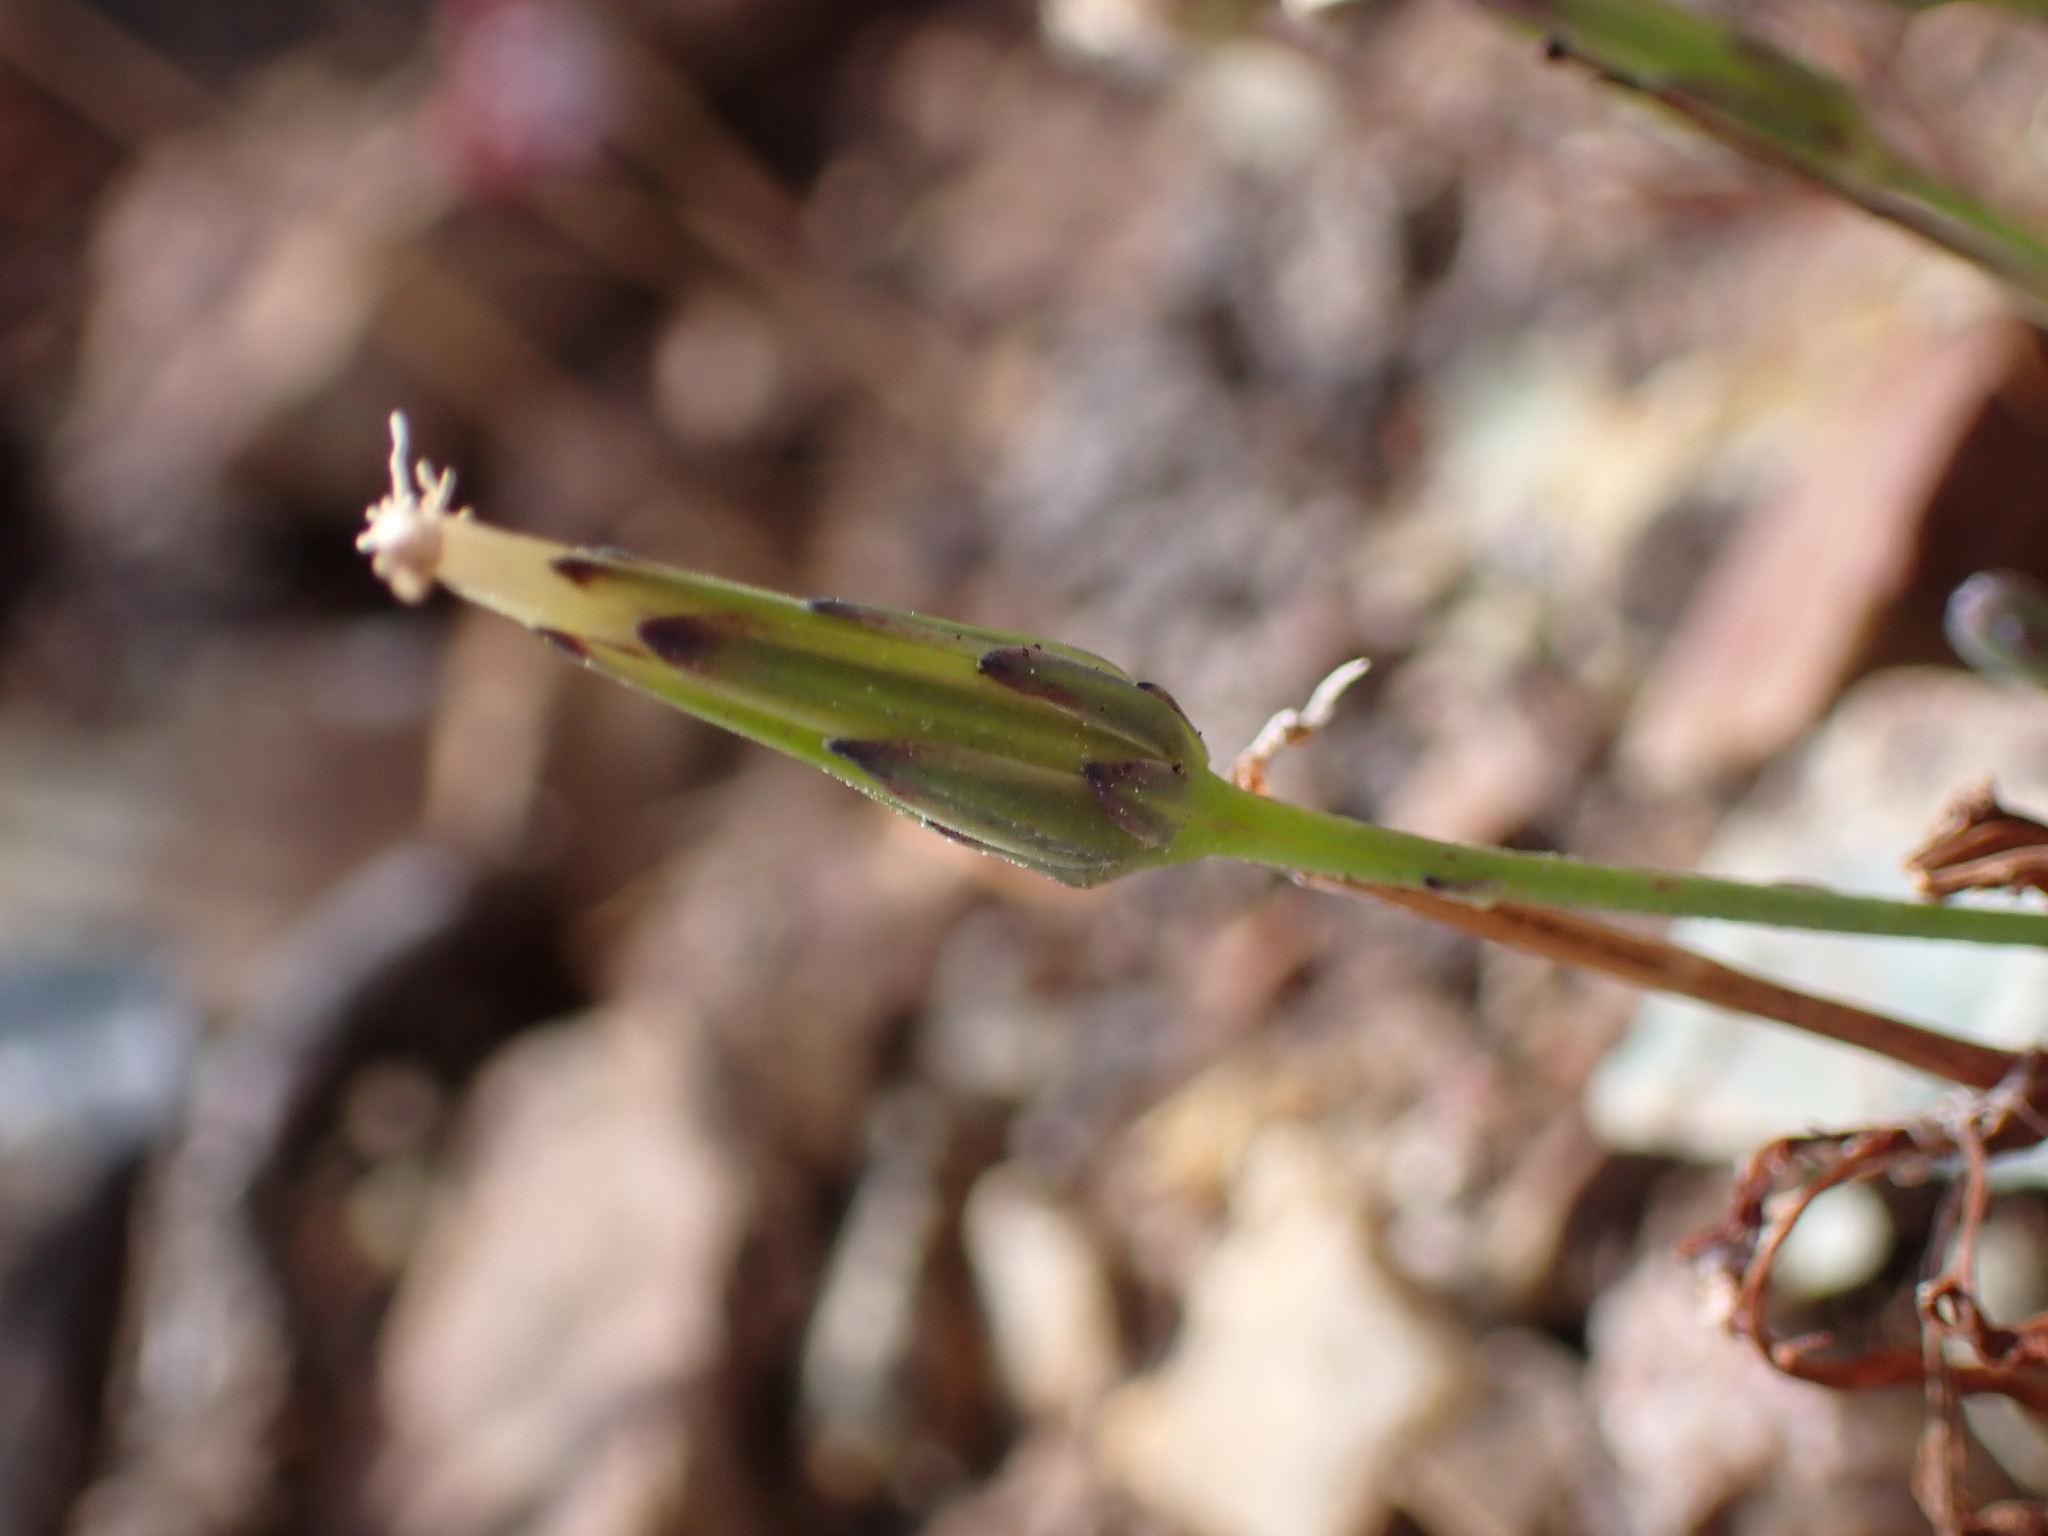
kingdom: Plantae
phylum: Tracheophyta
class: Magnoliopsida
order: Asterales
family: Asteraceae
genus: Hypochaeris
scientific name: Hypochaeris glabra
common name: Smooth catsear
